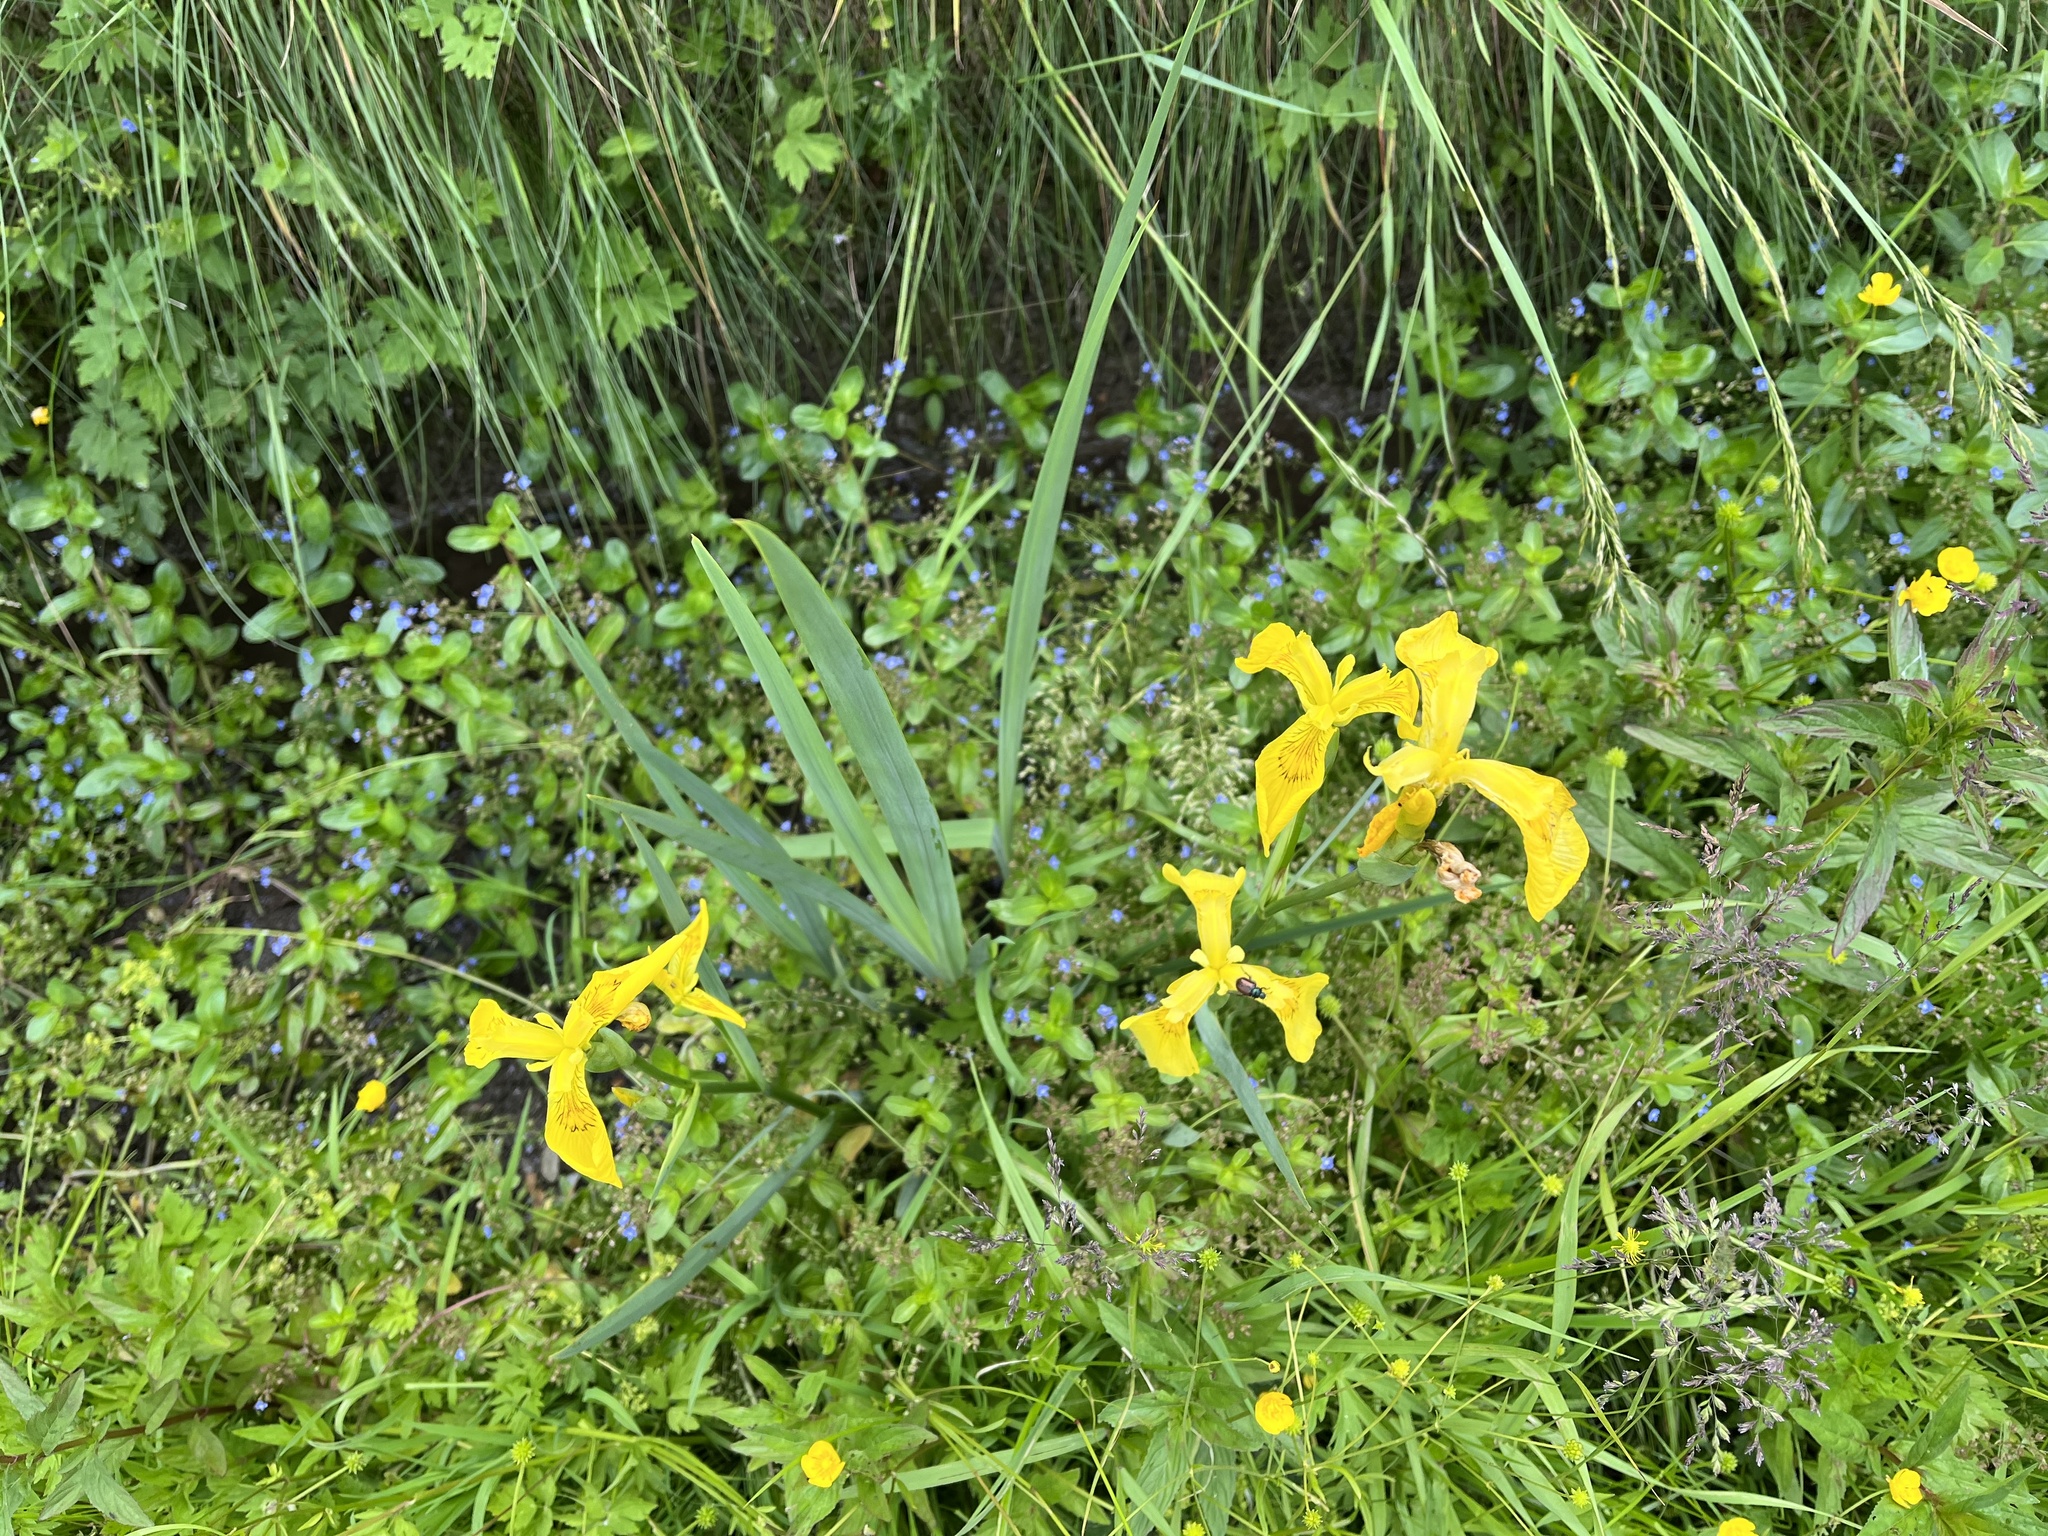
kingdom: Plantae
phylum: Tracheophyta
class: Liliopsida
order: Asparagales
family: Iridaceae
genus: Iris
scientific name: Iris pseudacorus
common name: Yellow flag
